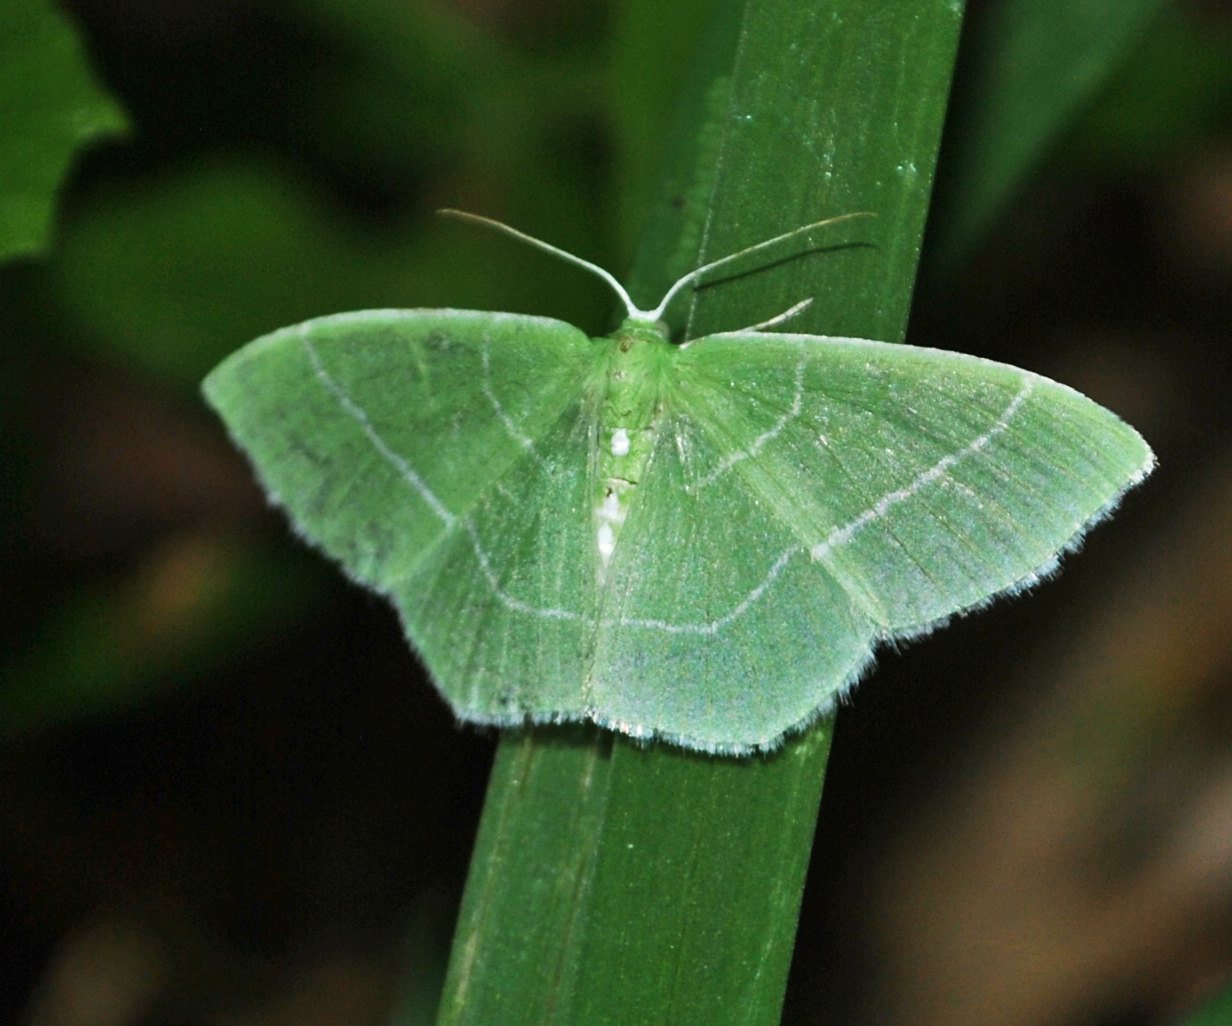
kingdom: Animalia
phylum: Arthropoda
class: Insecta
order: Lepidoptera
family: Geometridae
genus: Nemoria
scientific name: Nemoria mimosaria
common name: White-fringed emerald
